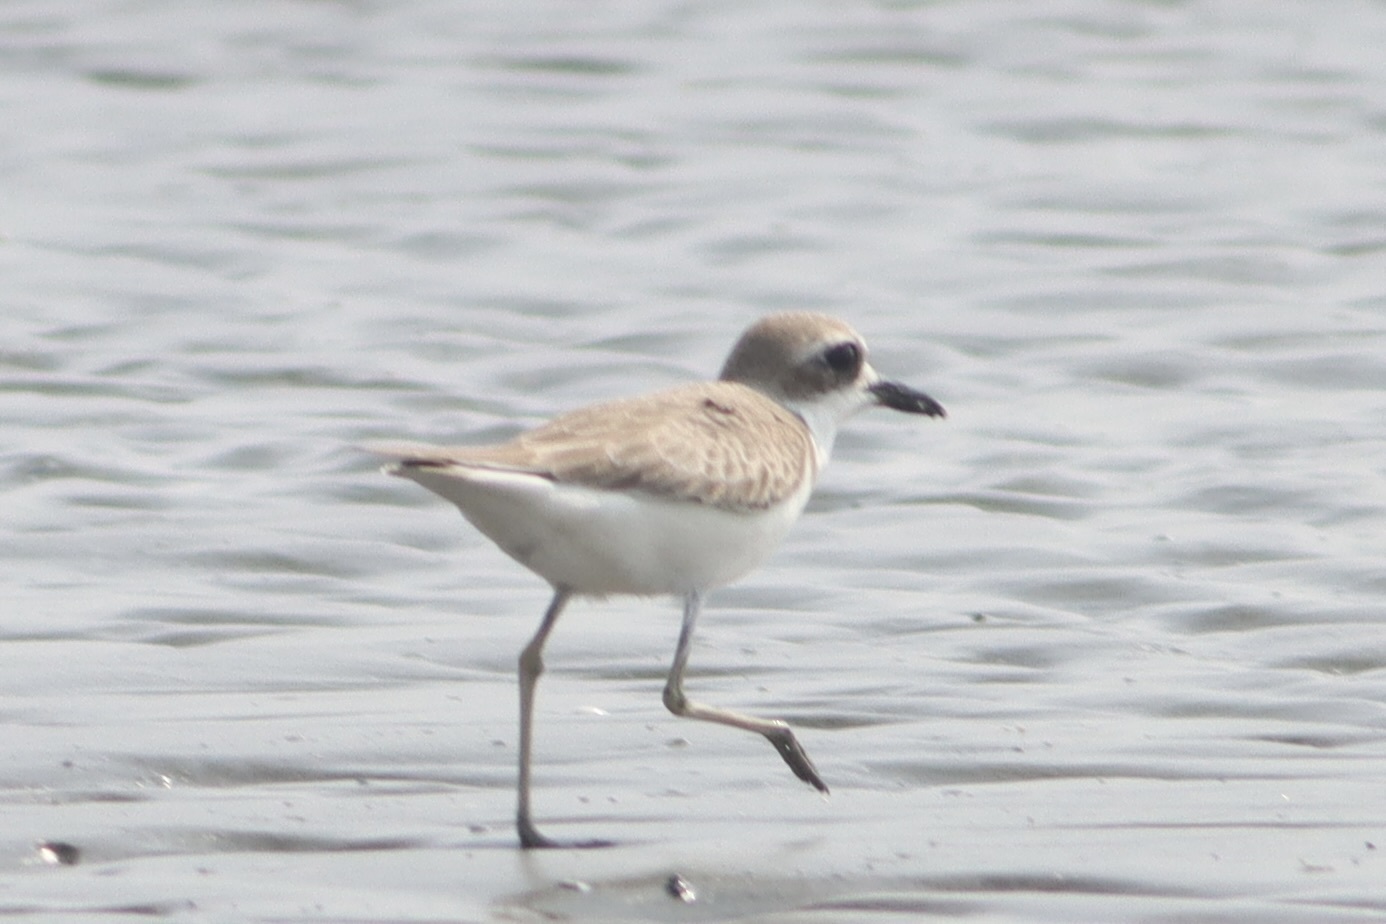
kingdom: Animalia
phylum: Chordata
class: Aves
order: Charadriiformes
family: Charadriidae
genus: Charadrius
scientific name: Charadrius leschenaultii
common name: Greater sand plover
